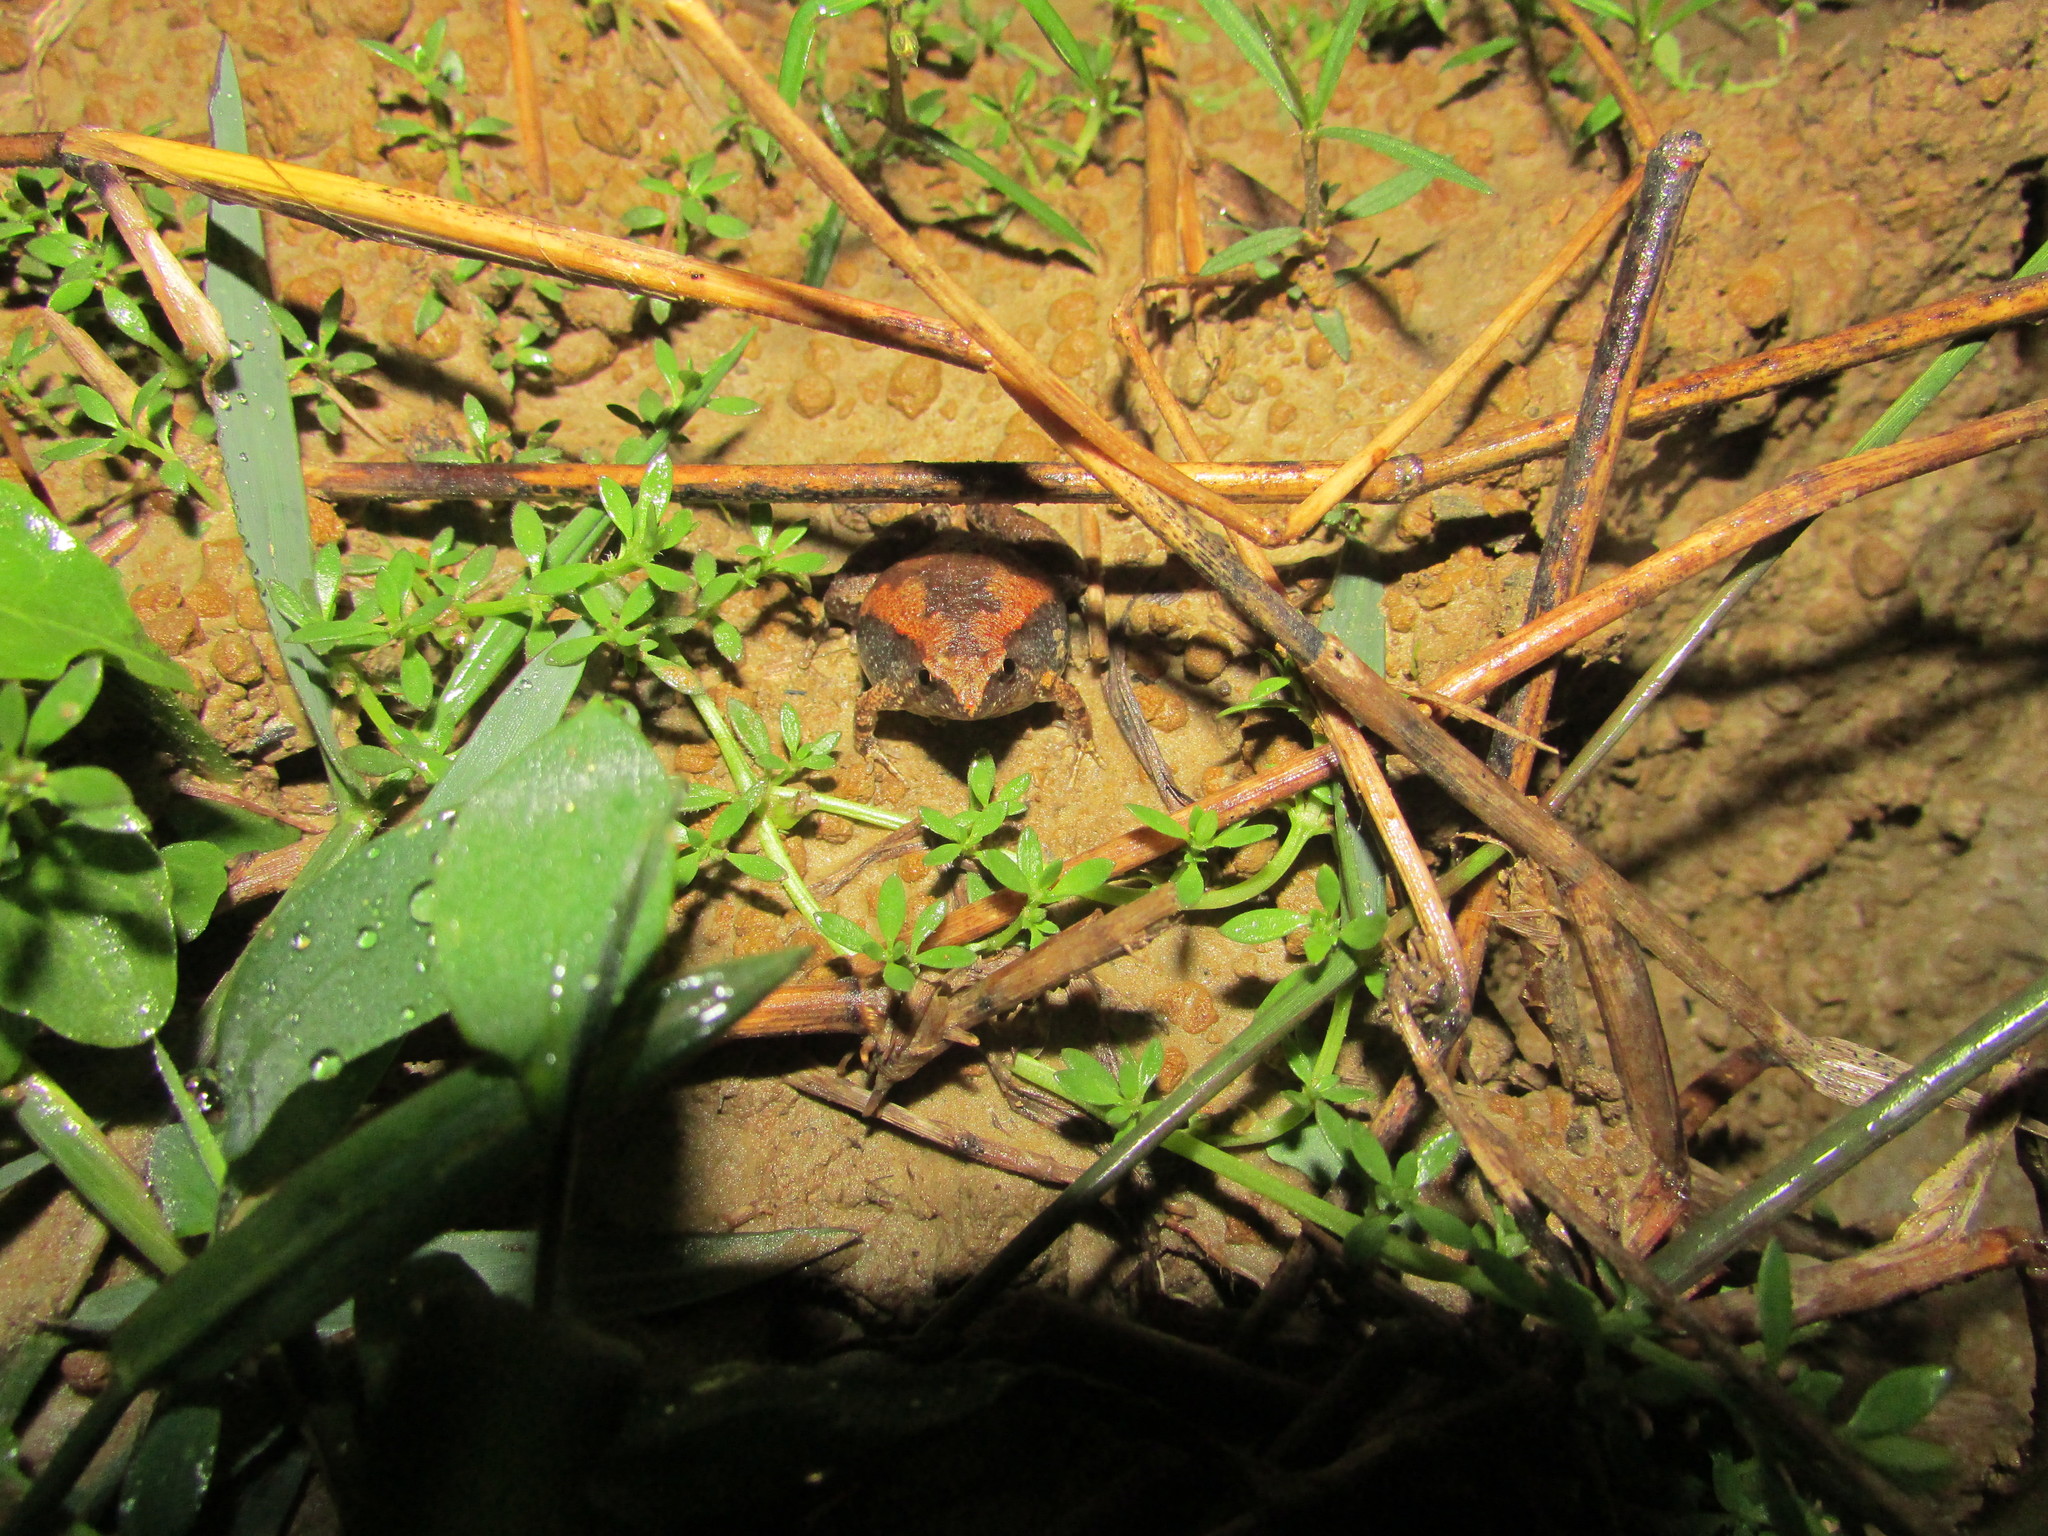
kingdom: Animalia
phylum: Chordata
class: Amphibia
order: Anura
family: Microhylidae
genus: Microhyla
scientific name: Microhyla chakrapanii
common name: Chakrapani's narrow-mouthed frog
